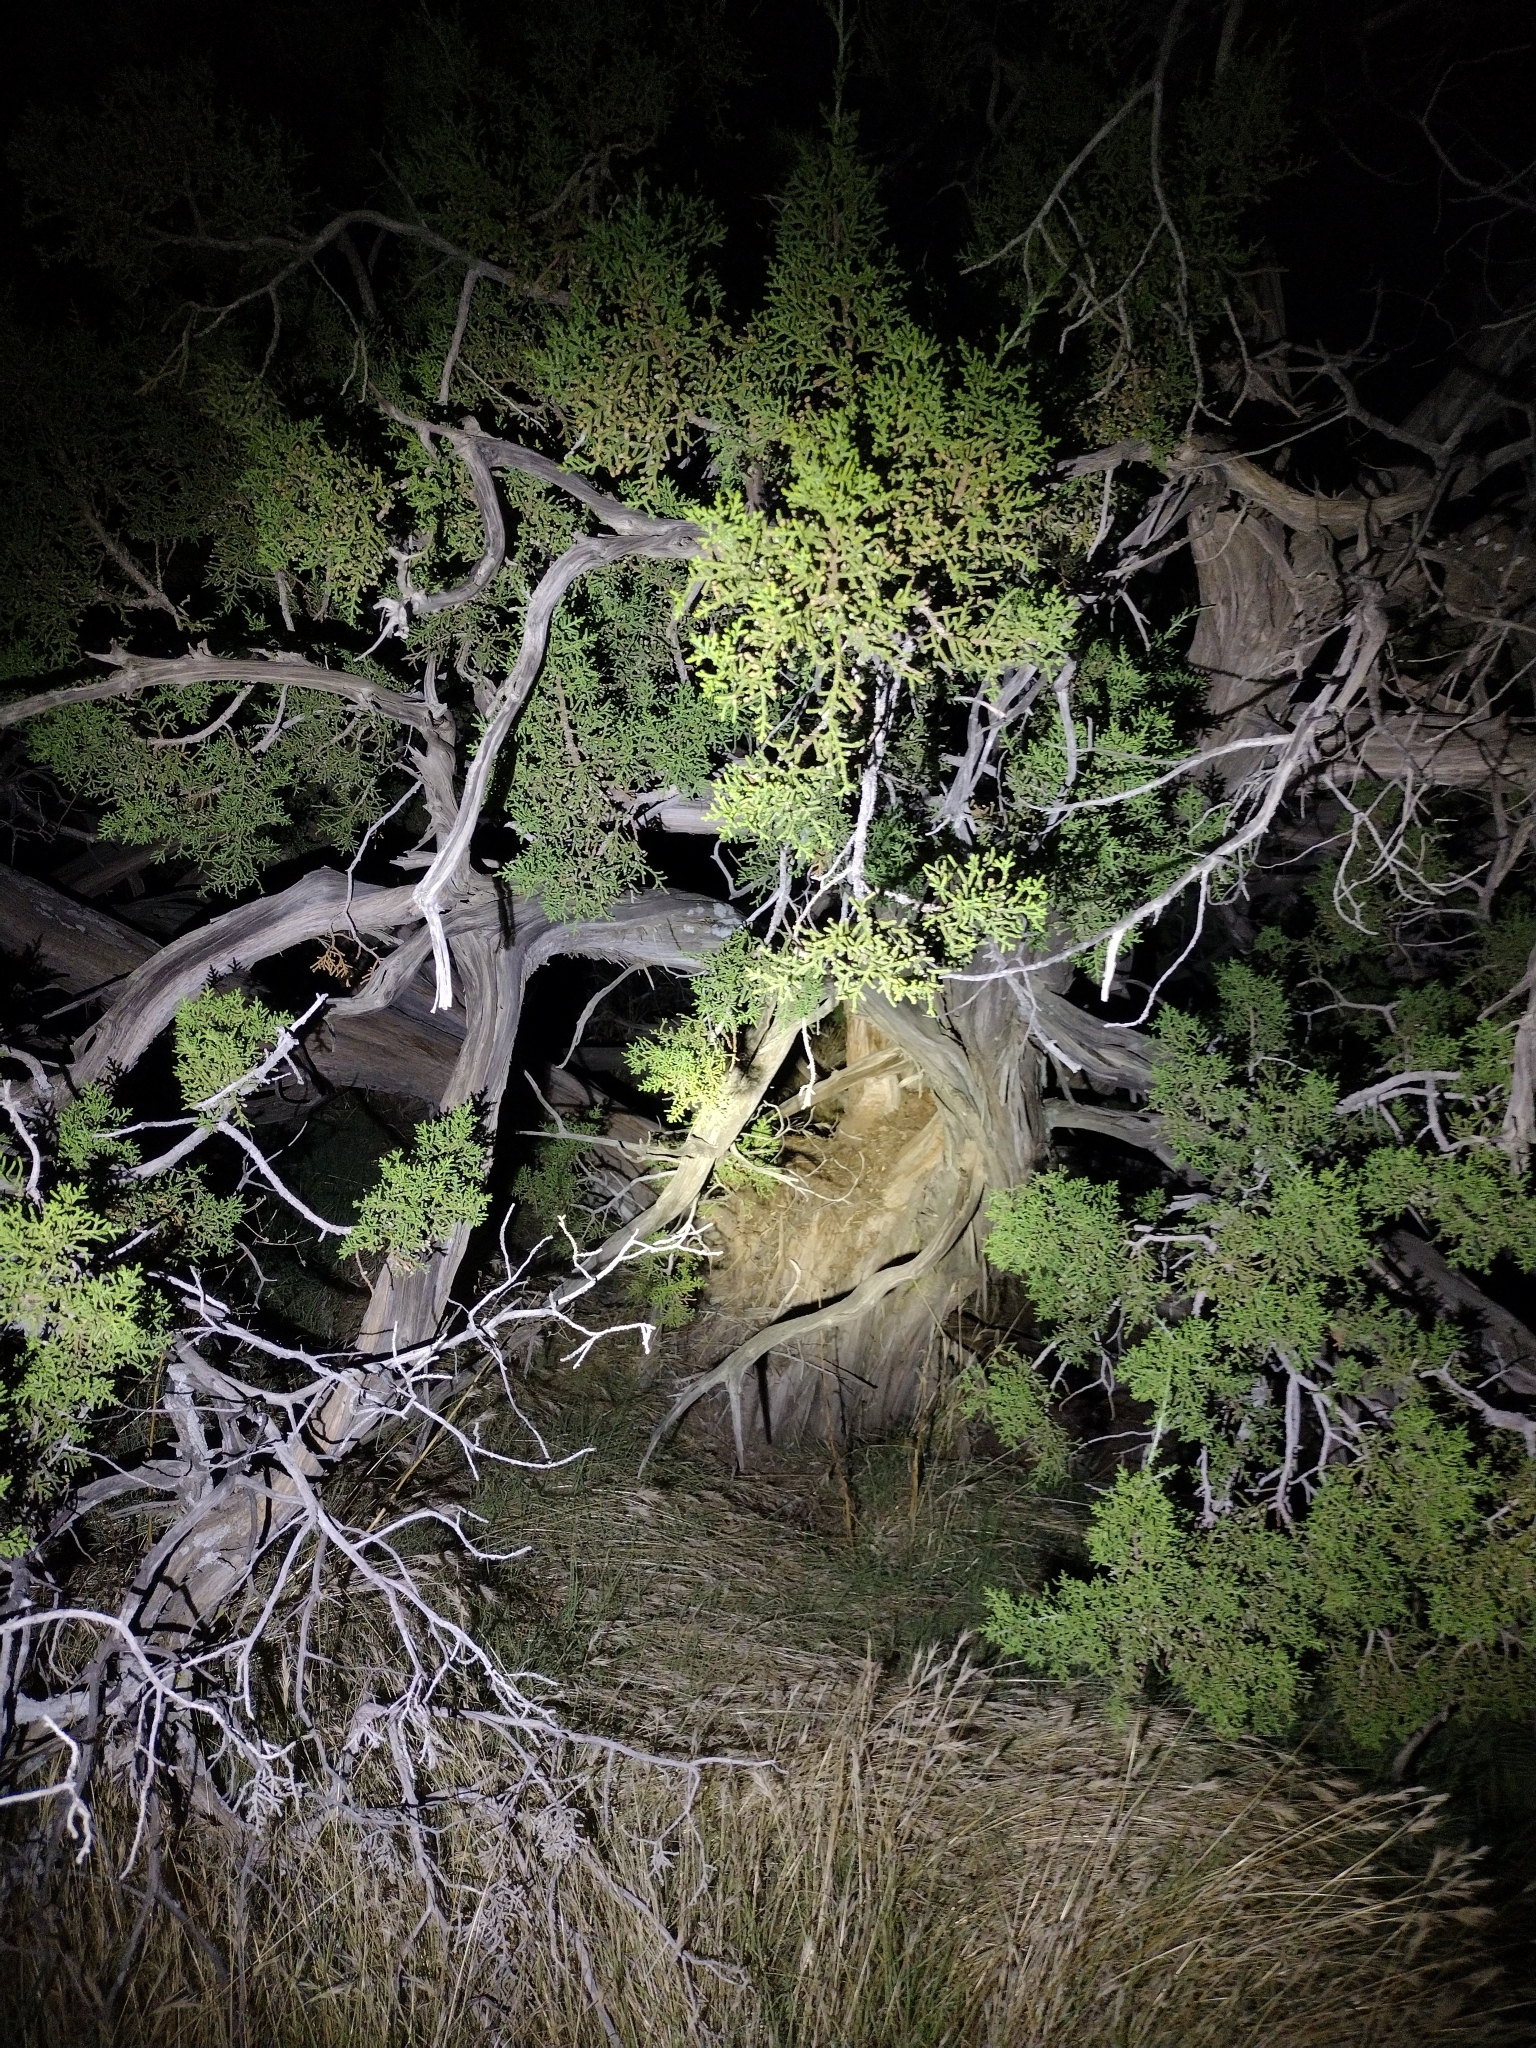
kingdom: Plantae
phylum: Tracheophyta
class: Pinopsida
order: Pinales
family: Cupressaceae
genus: Juniperus
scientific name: Juniperus californica
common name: California juniper
